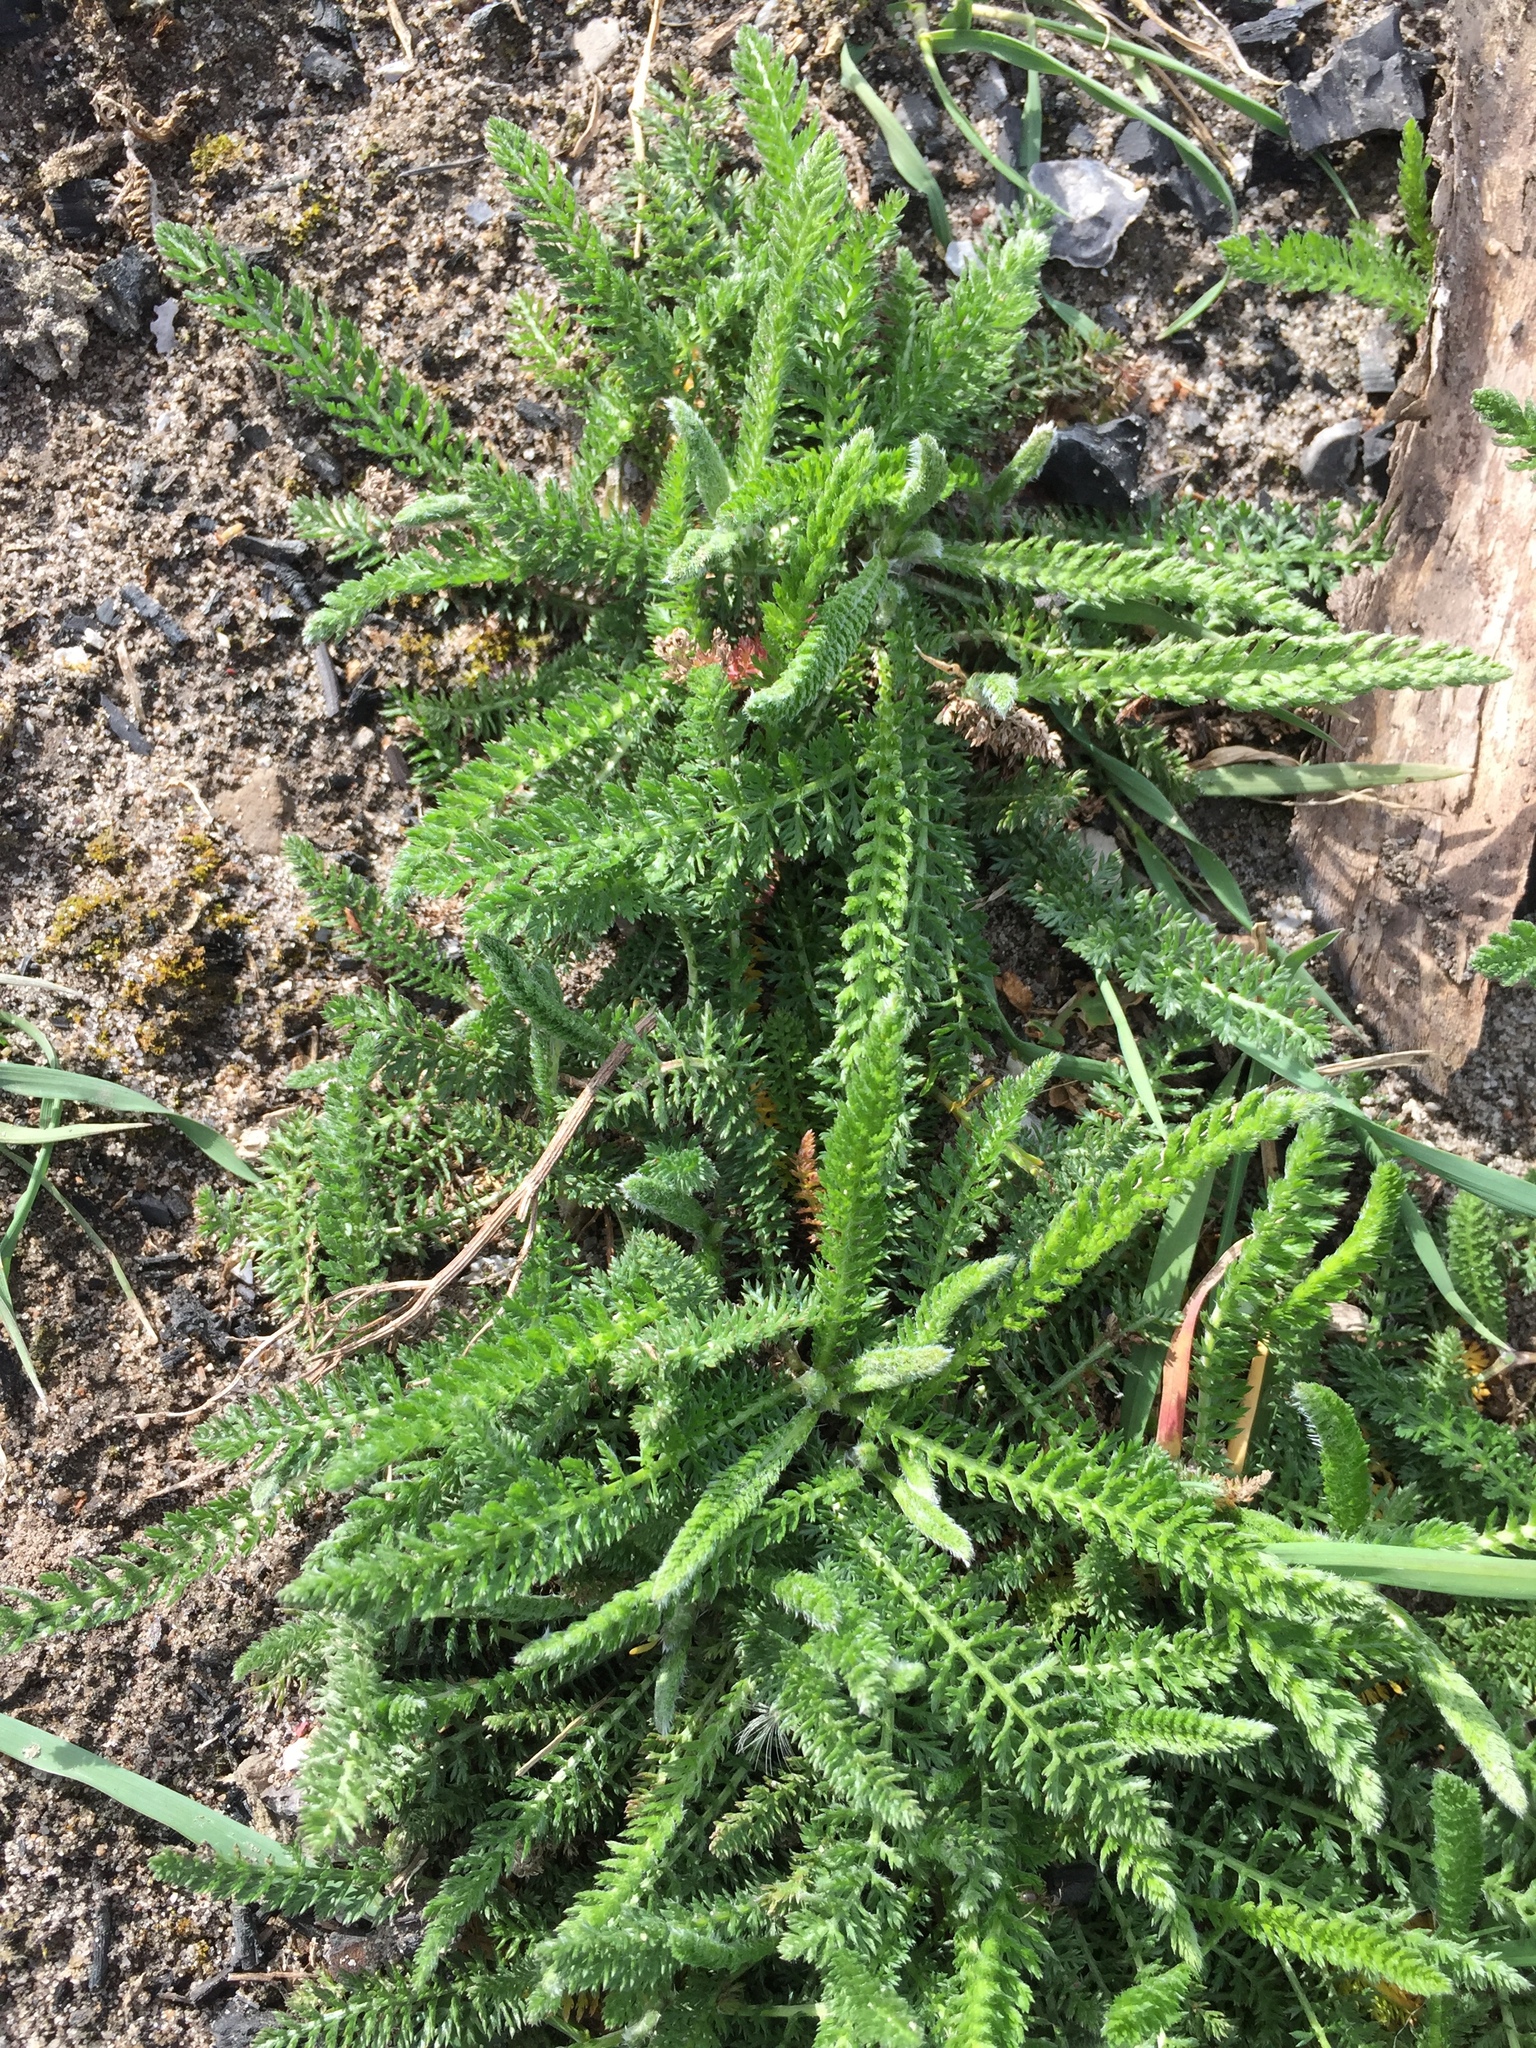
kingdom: Plantae
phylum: Tracheophyta
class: Magnoliopsida
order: Asterales
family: Asteraceae
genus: Achillea
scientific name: Achillea millefolium
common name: Yarrow
